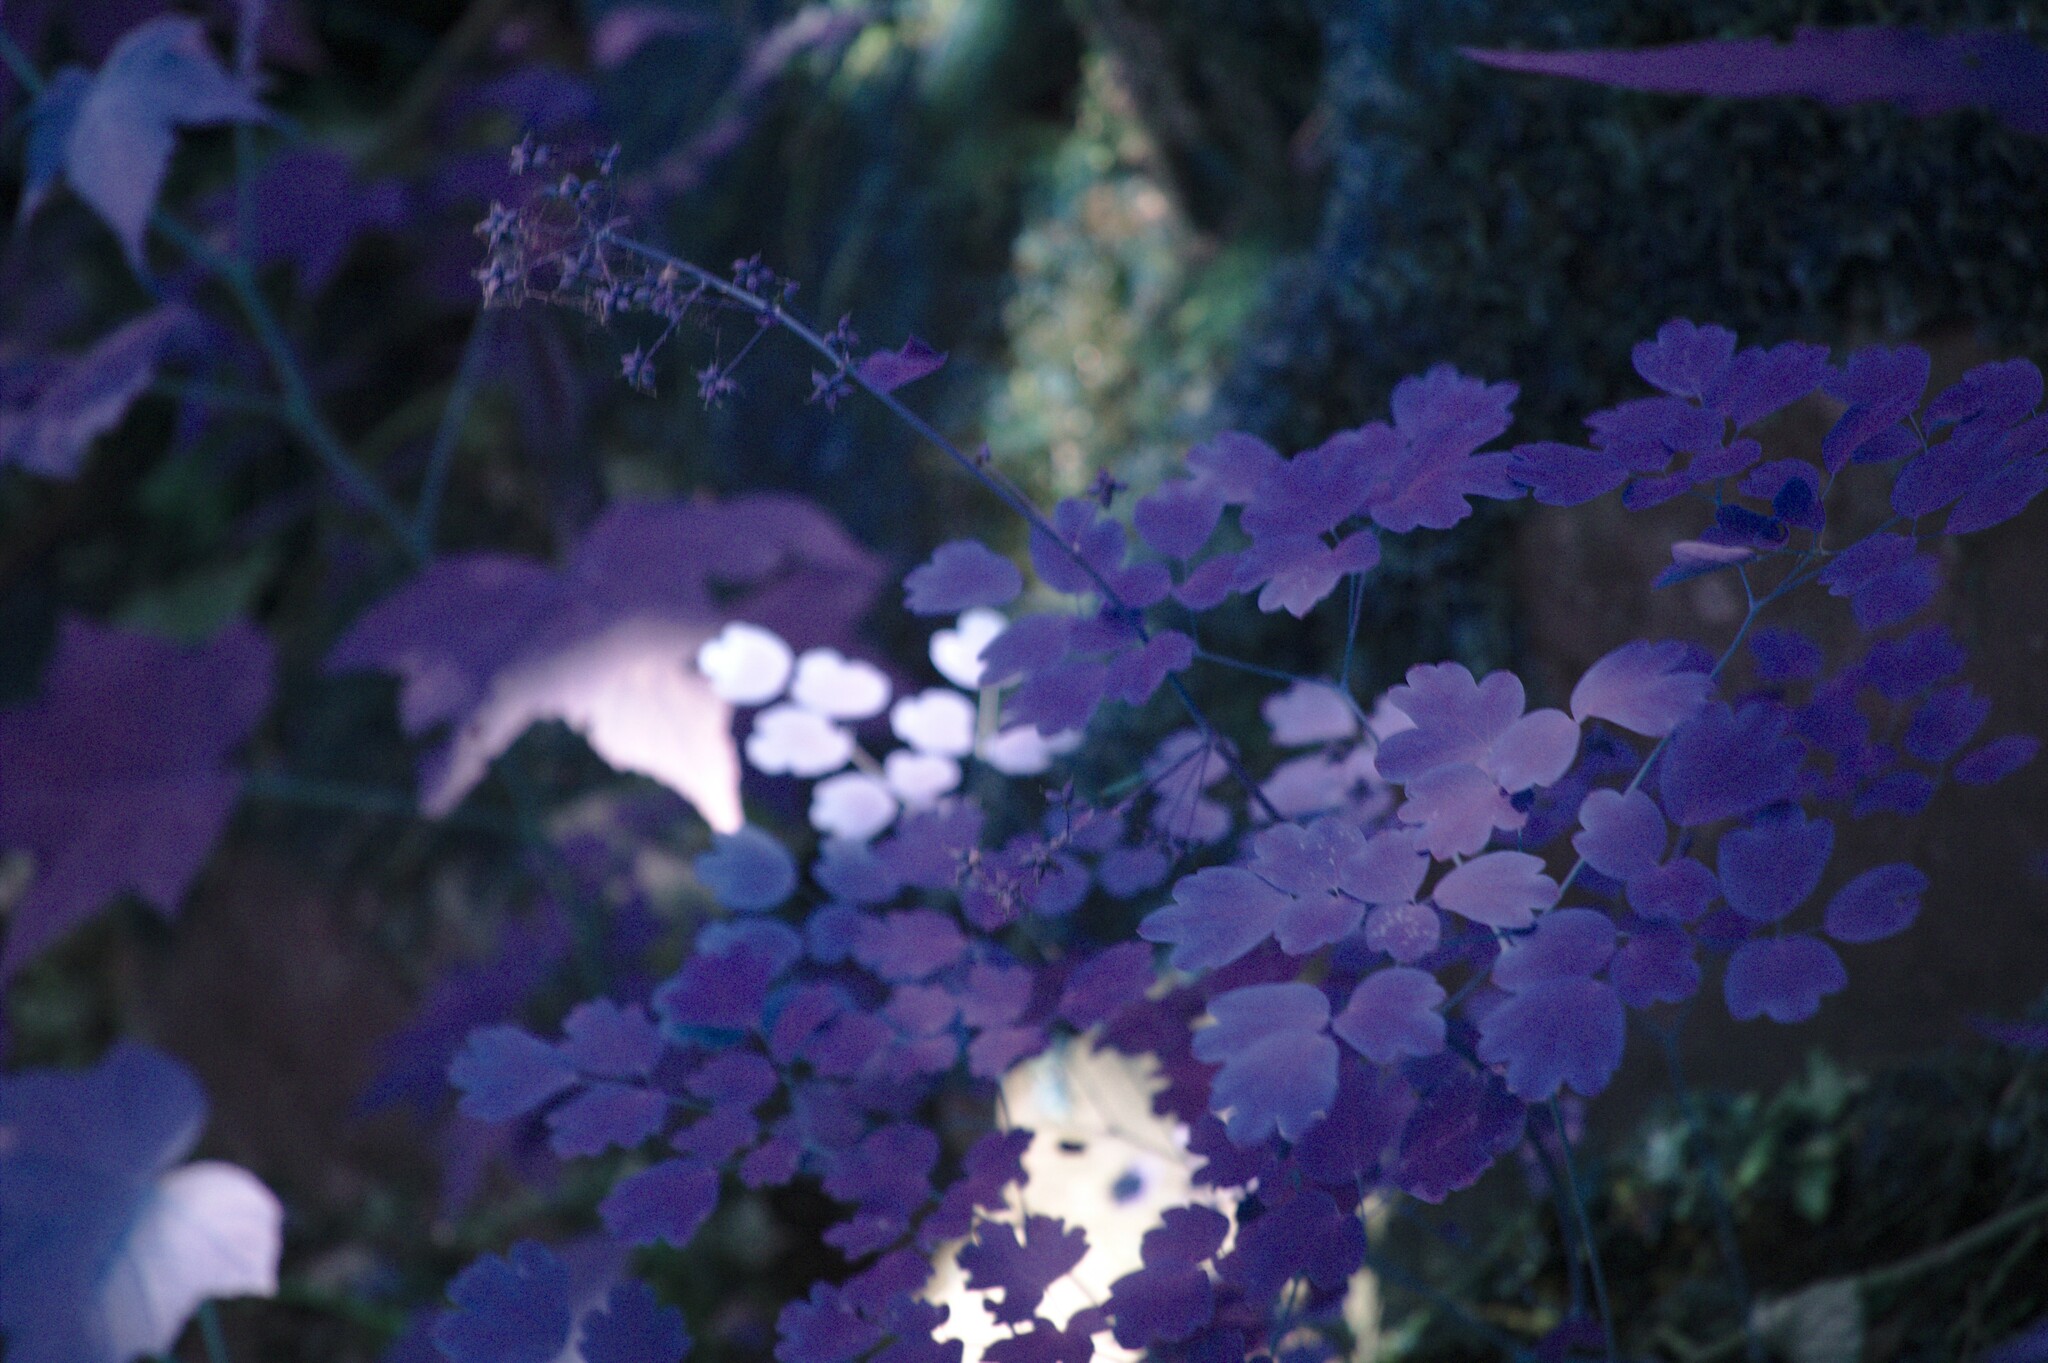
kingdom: Plantae
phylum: Tracheophyta
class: Magnoliopsida
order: Ranunculales
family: Ranunculaceae
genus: Thalictrum
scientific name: Thalictrum dioicum
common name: Early meadow-rue
